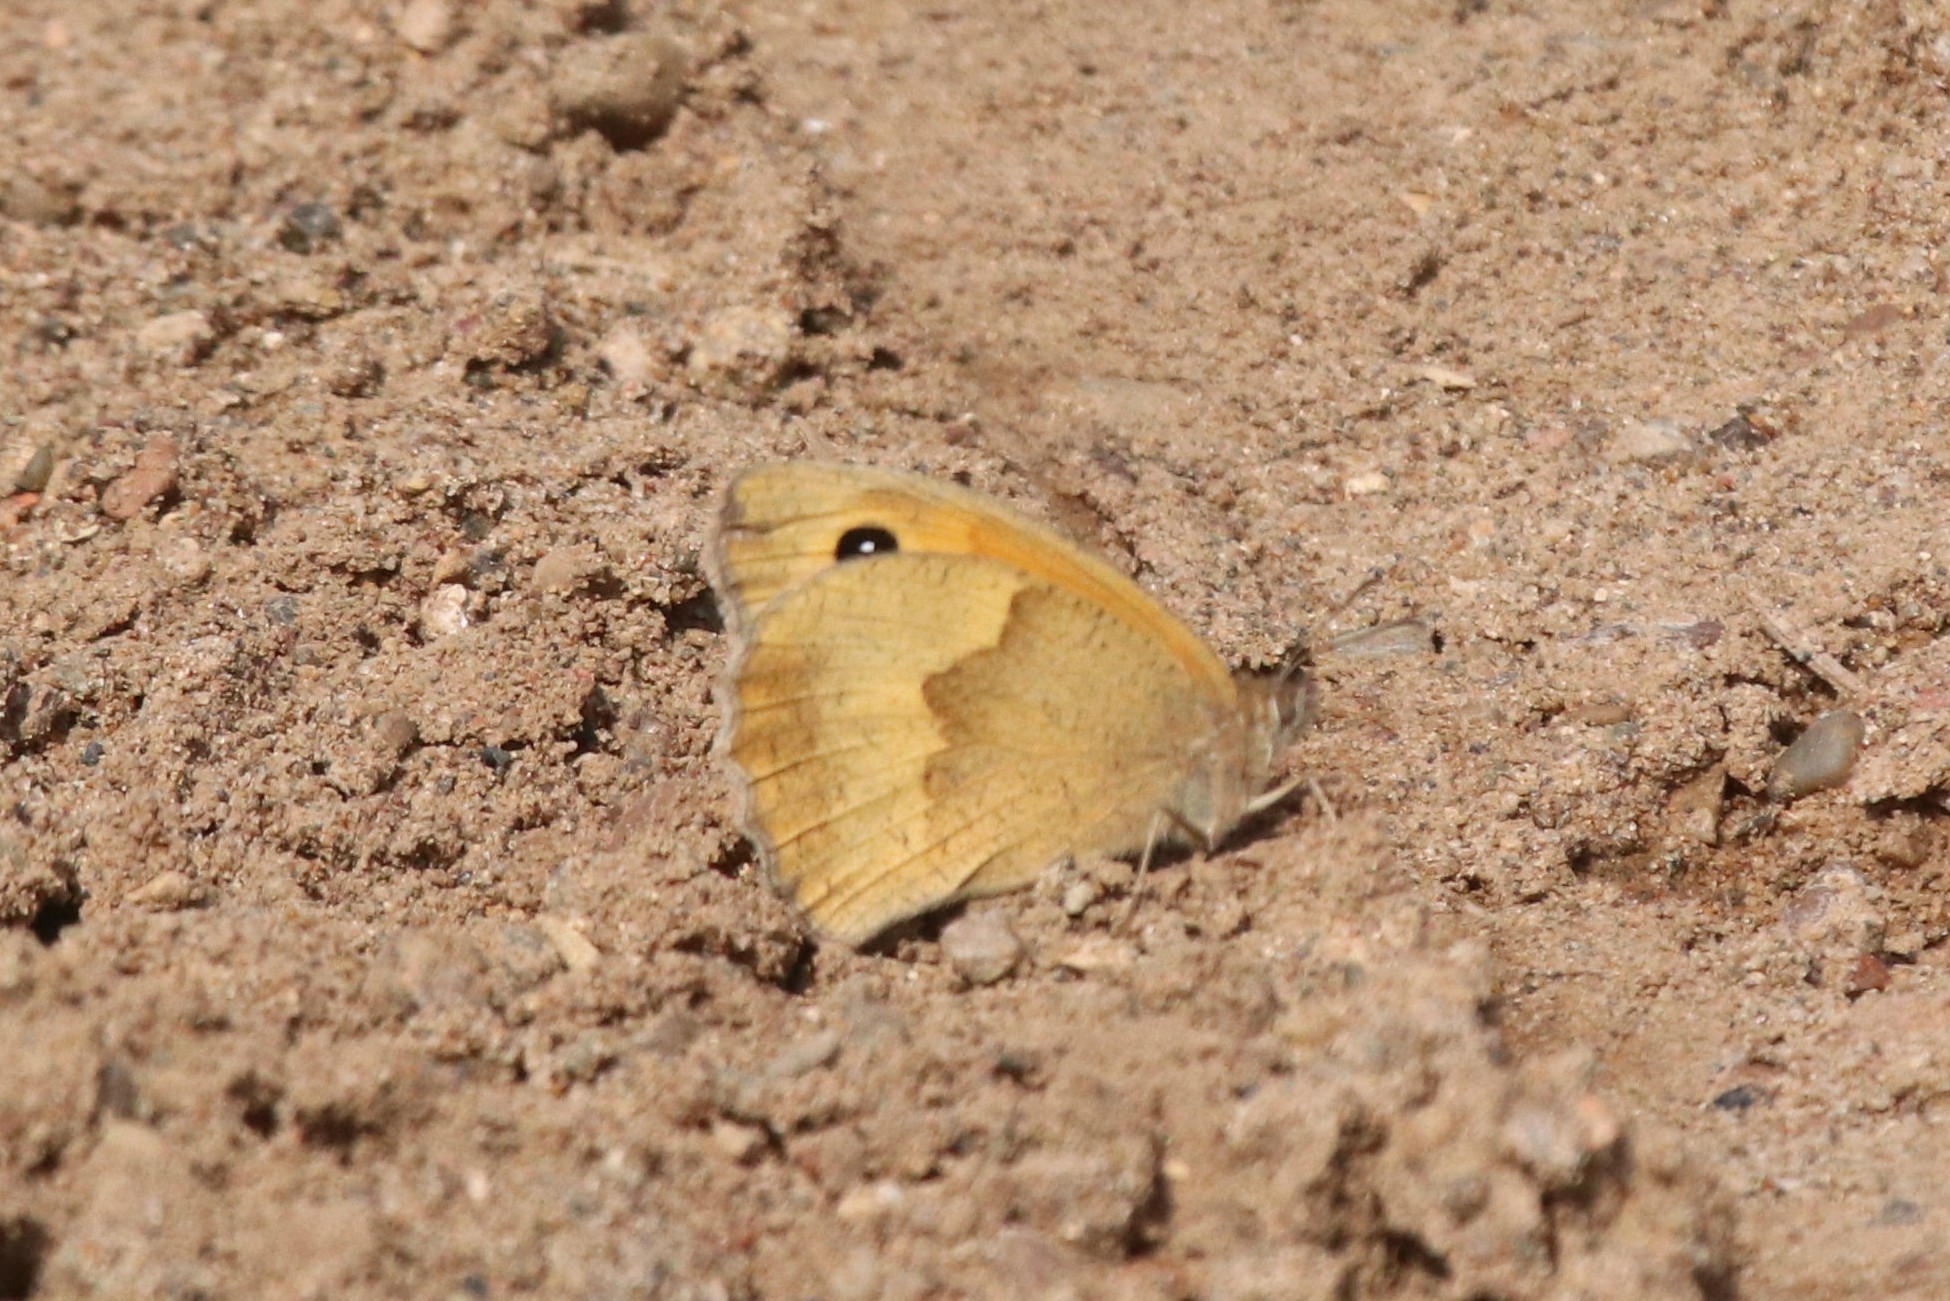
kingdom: Animalia
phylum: Arthropoda
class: Insecta
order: Lepidoptera
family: Nymphalidae
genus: Maniola
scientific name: Maniola jurtina
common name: Meadow brown
